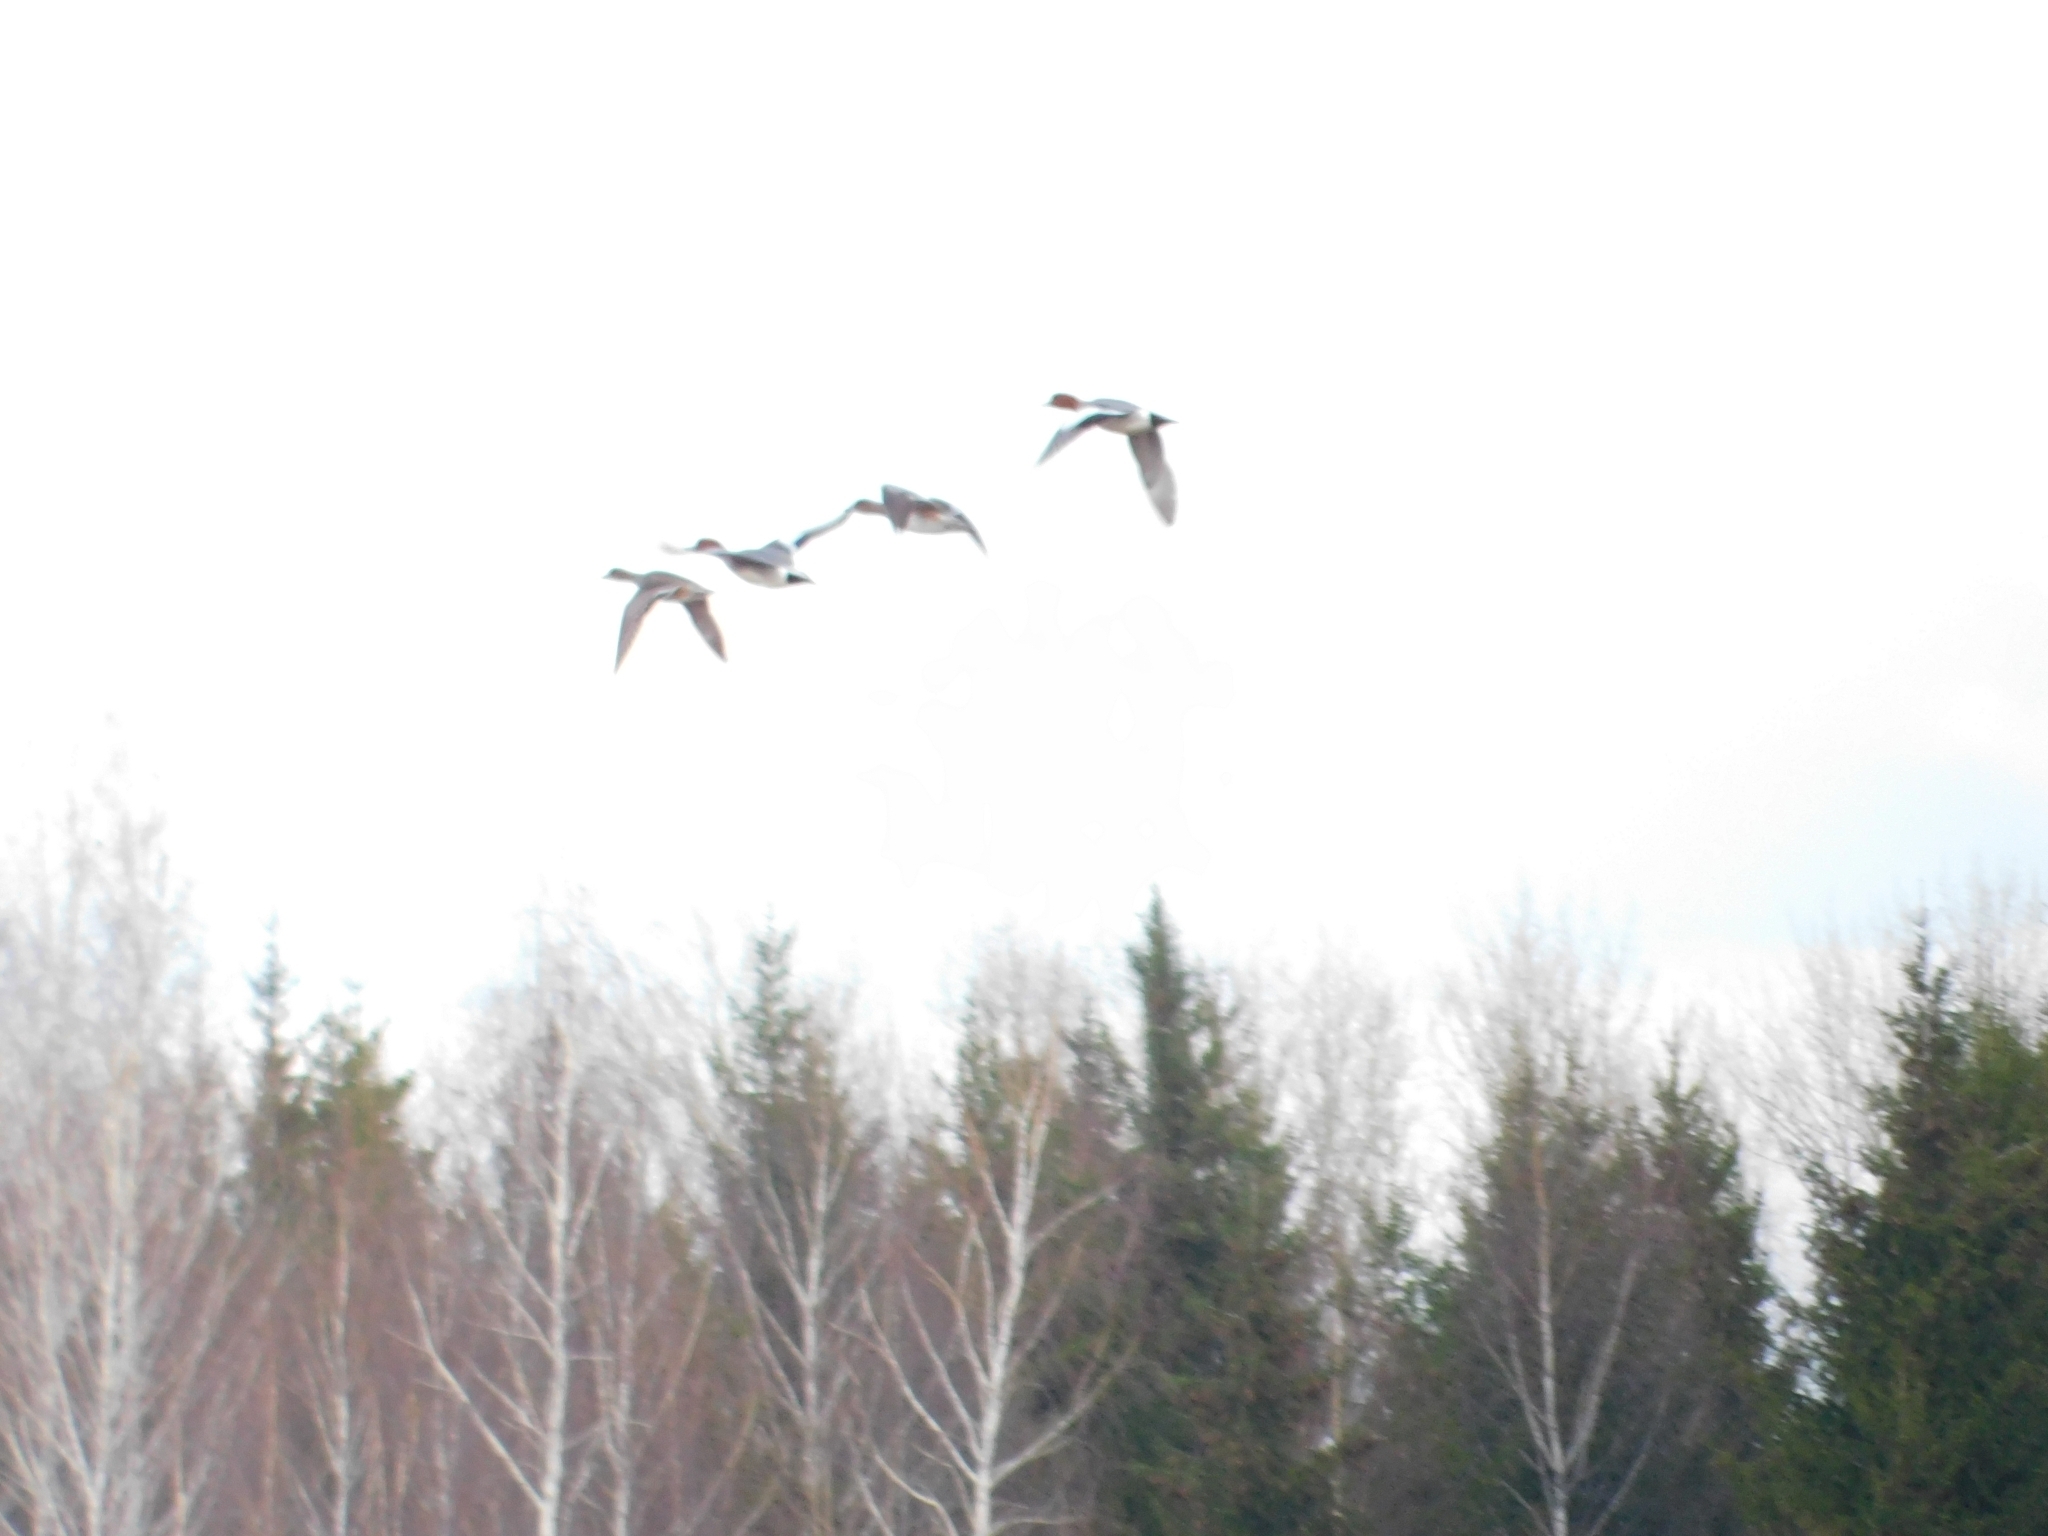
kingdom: Animalia
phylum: Chordata
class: Aves
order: Anseriformes
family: Anatidae
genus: Mareca
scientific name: Mareca penelope
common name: Eurasian wigeon
